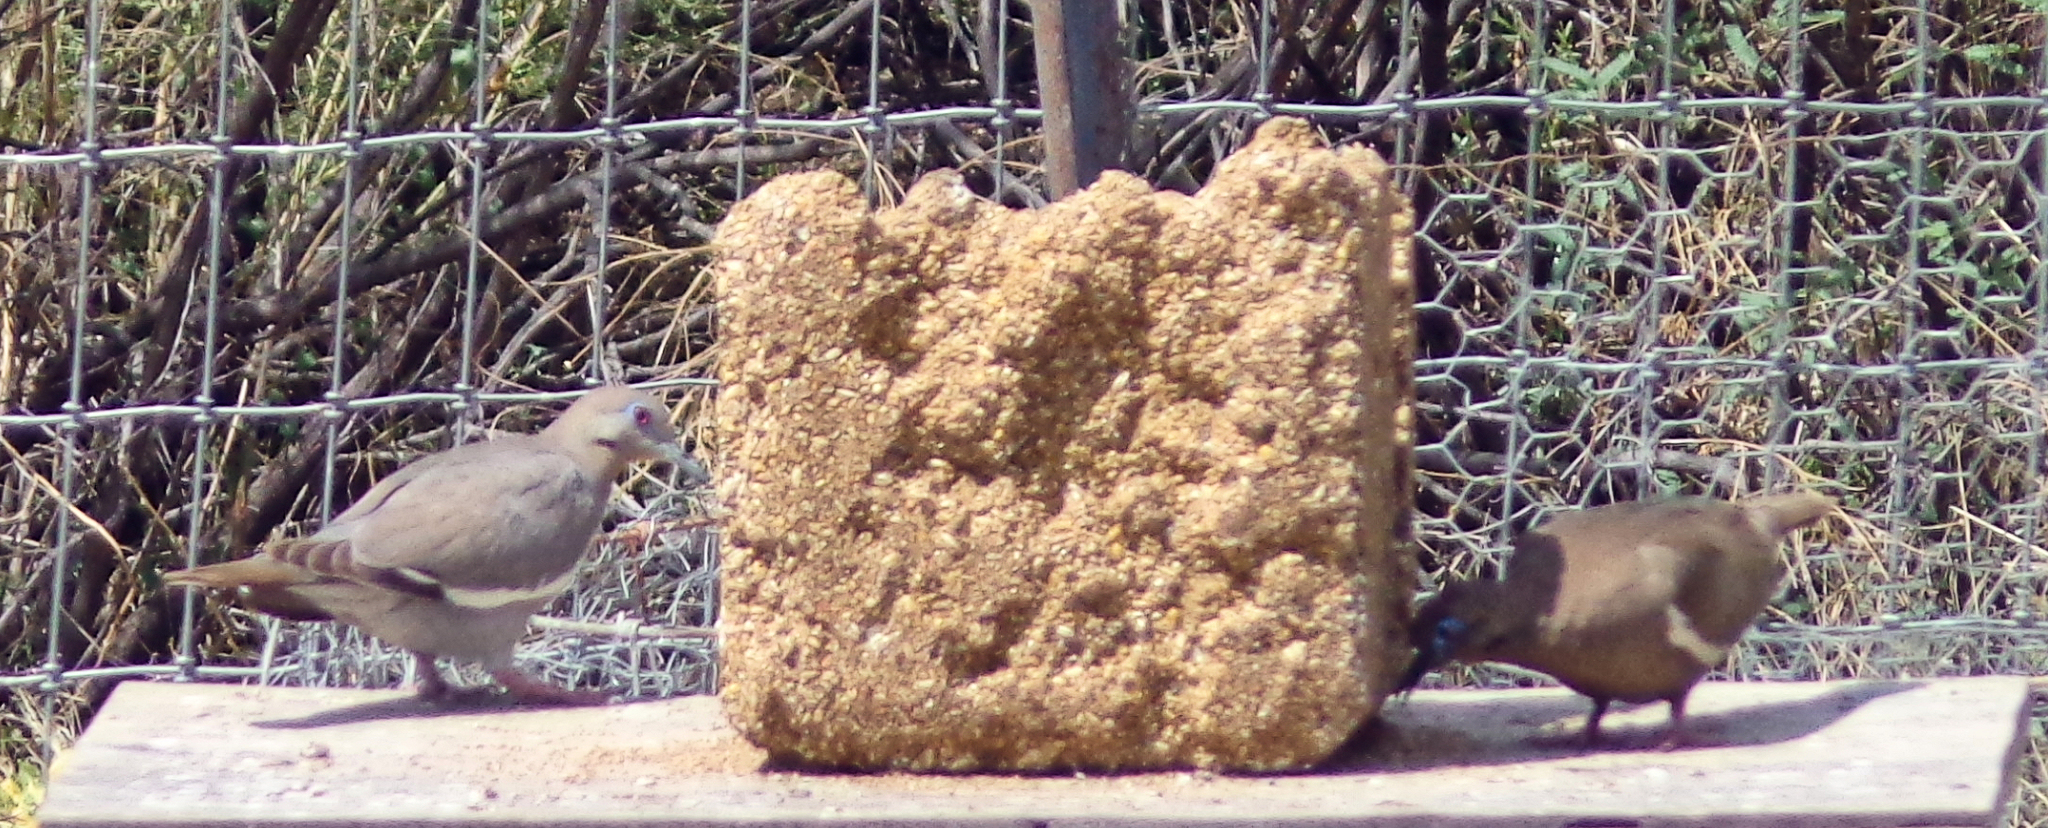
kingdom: Animalia
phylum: Chordata
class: Aves
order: Columbiformes
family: Columbidae
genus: Zenaida
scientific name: Zenaida asiatica
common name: White-winged dove
